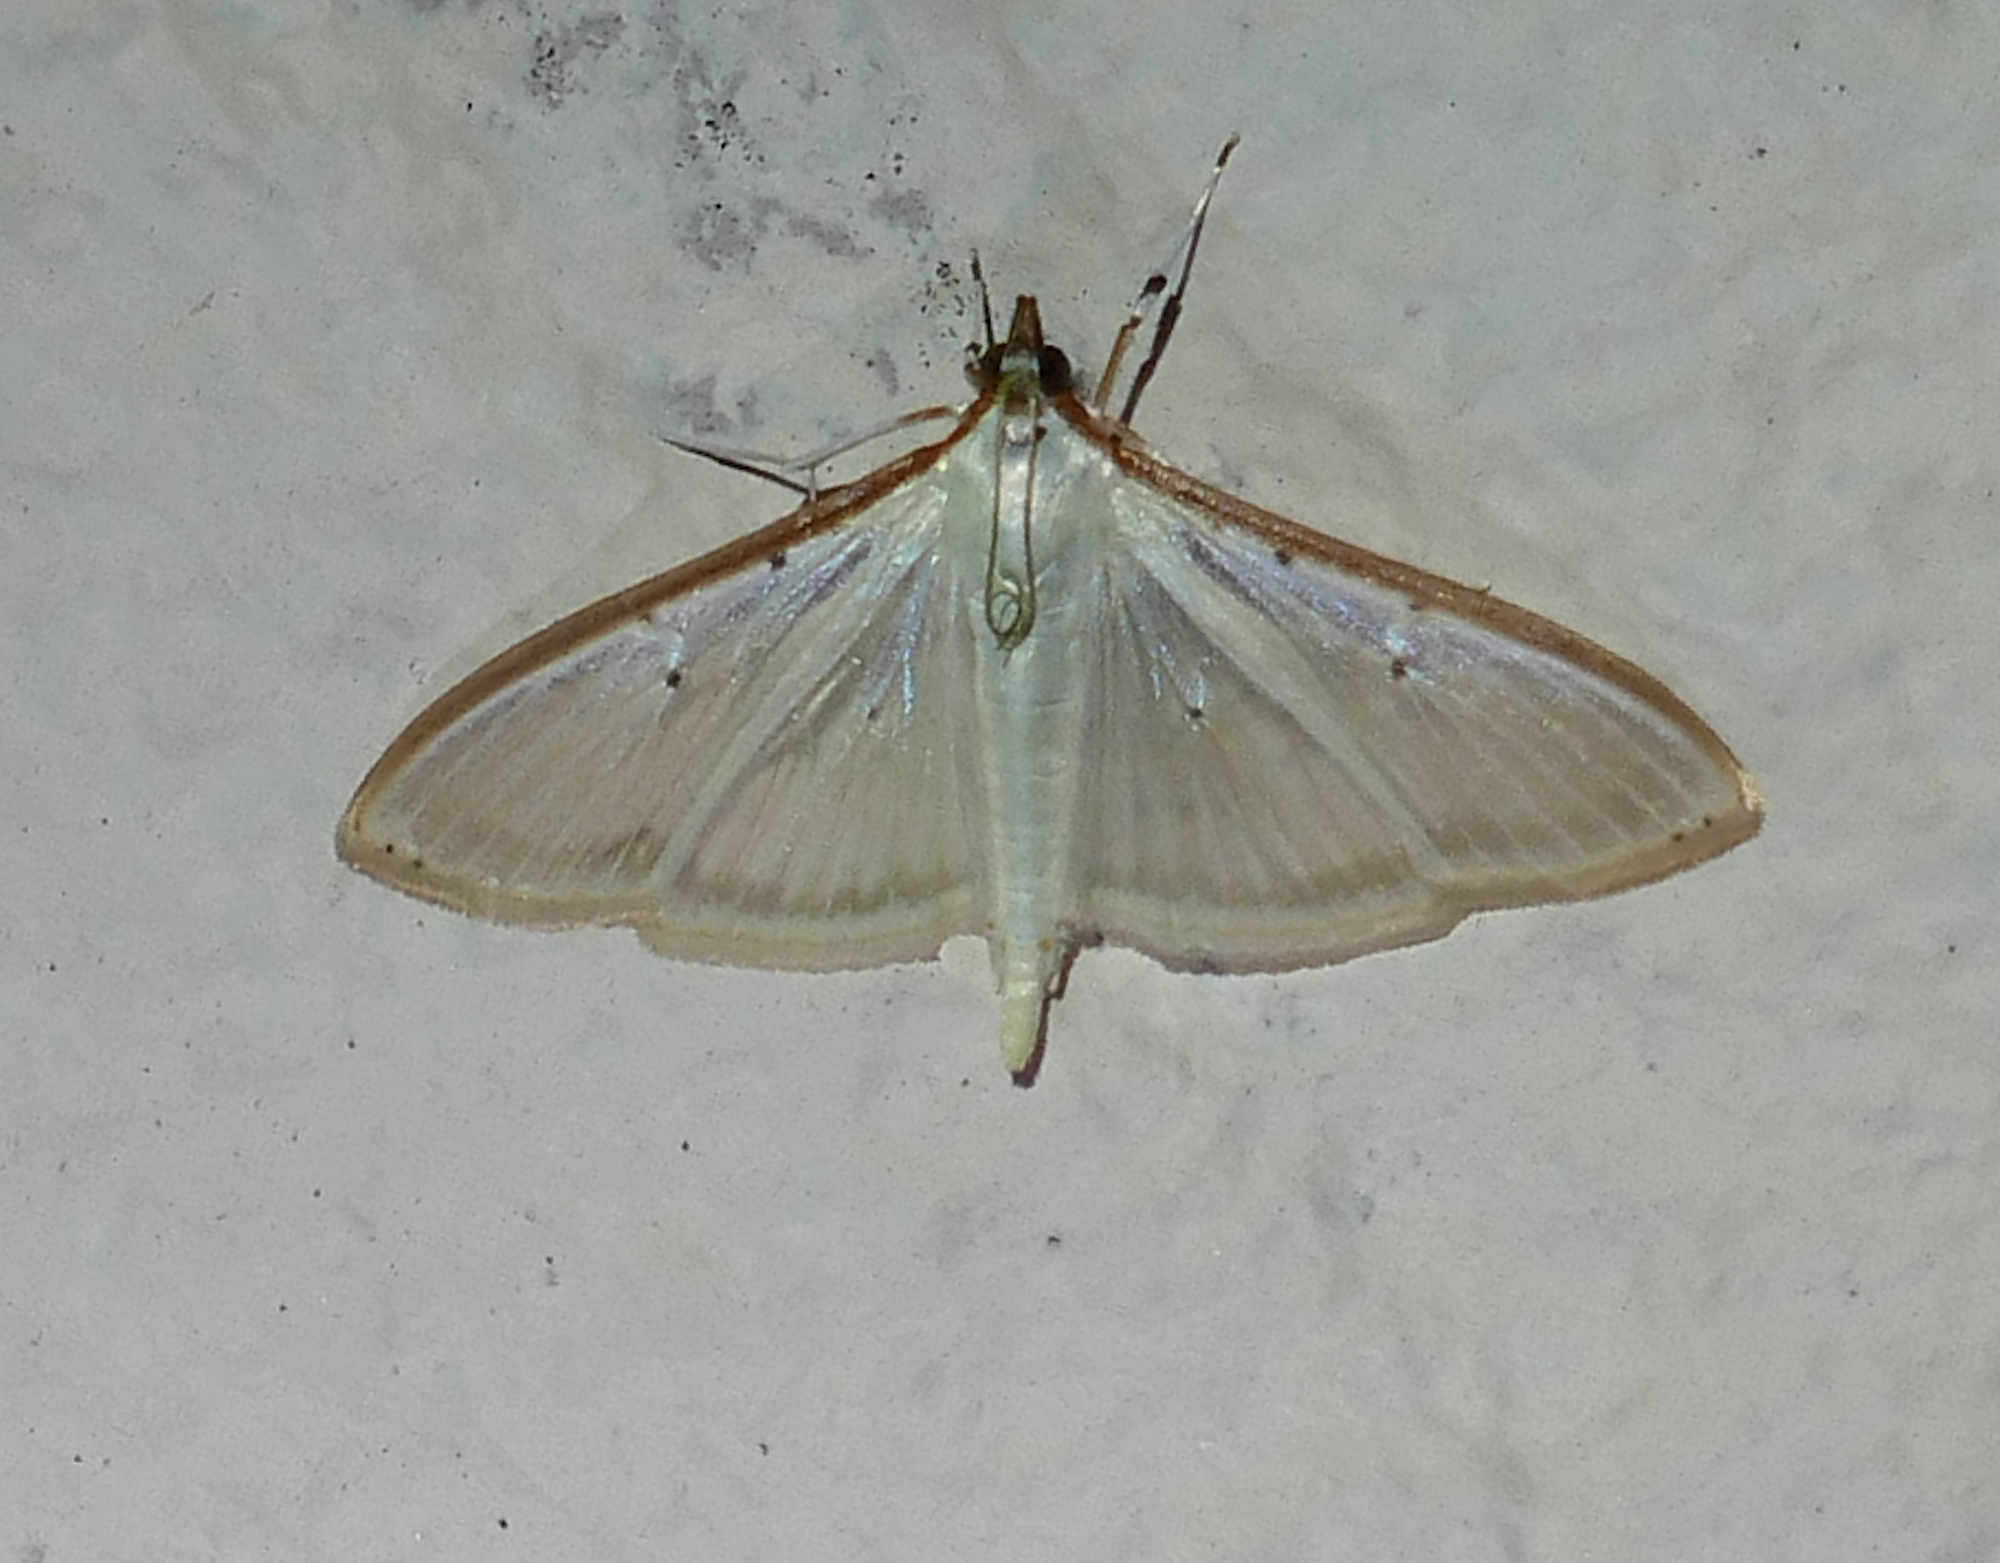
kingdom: Animalia
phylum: Arthropoda
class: Insecta
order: Lepidoptera
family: Crambidae
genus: Palpita
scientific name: Palpita quadristigmalis
